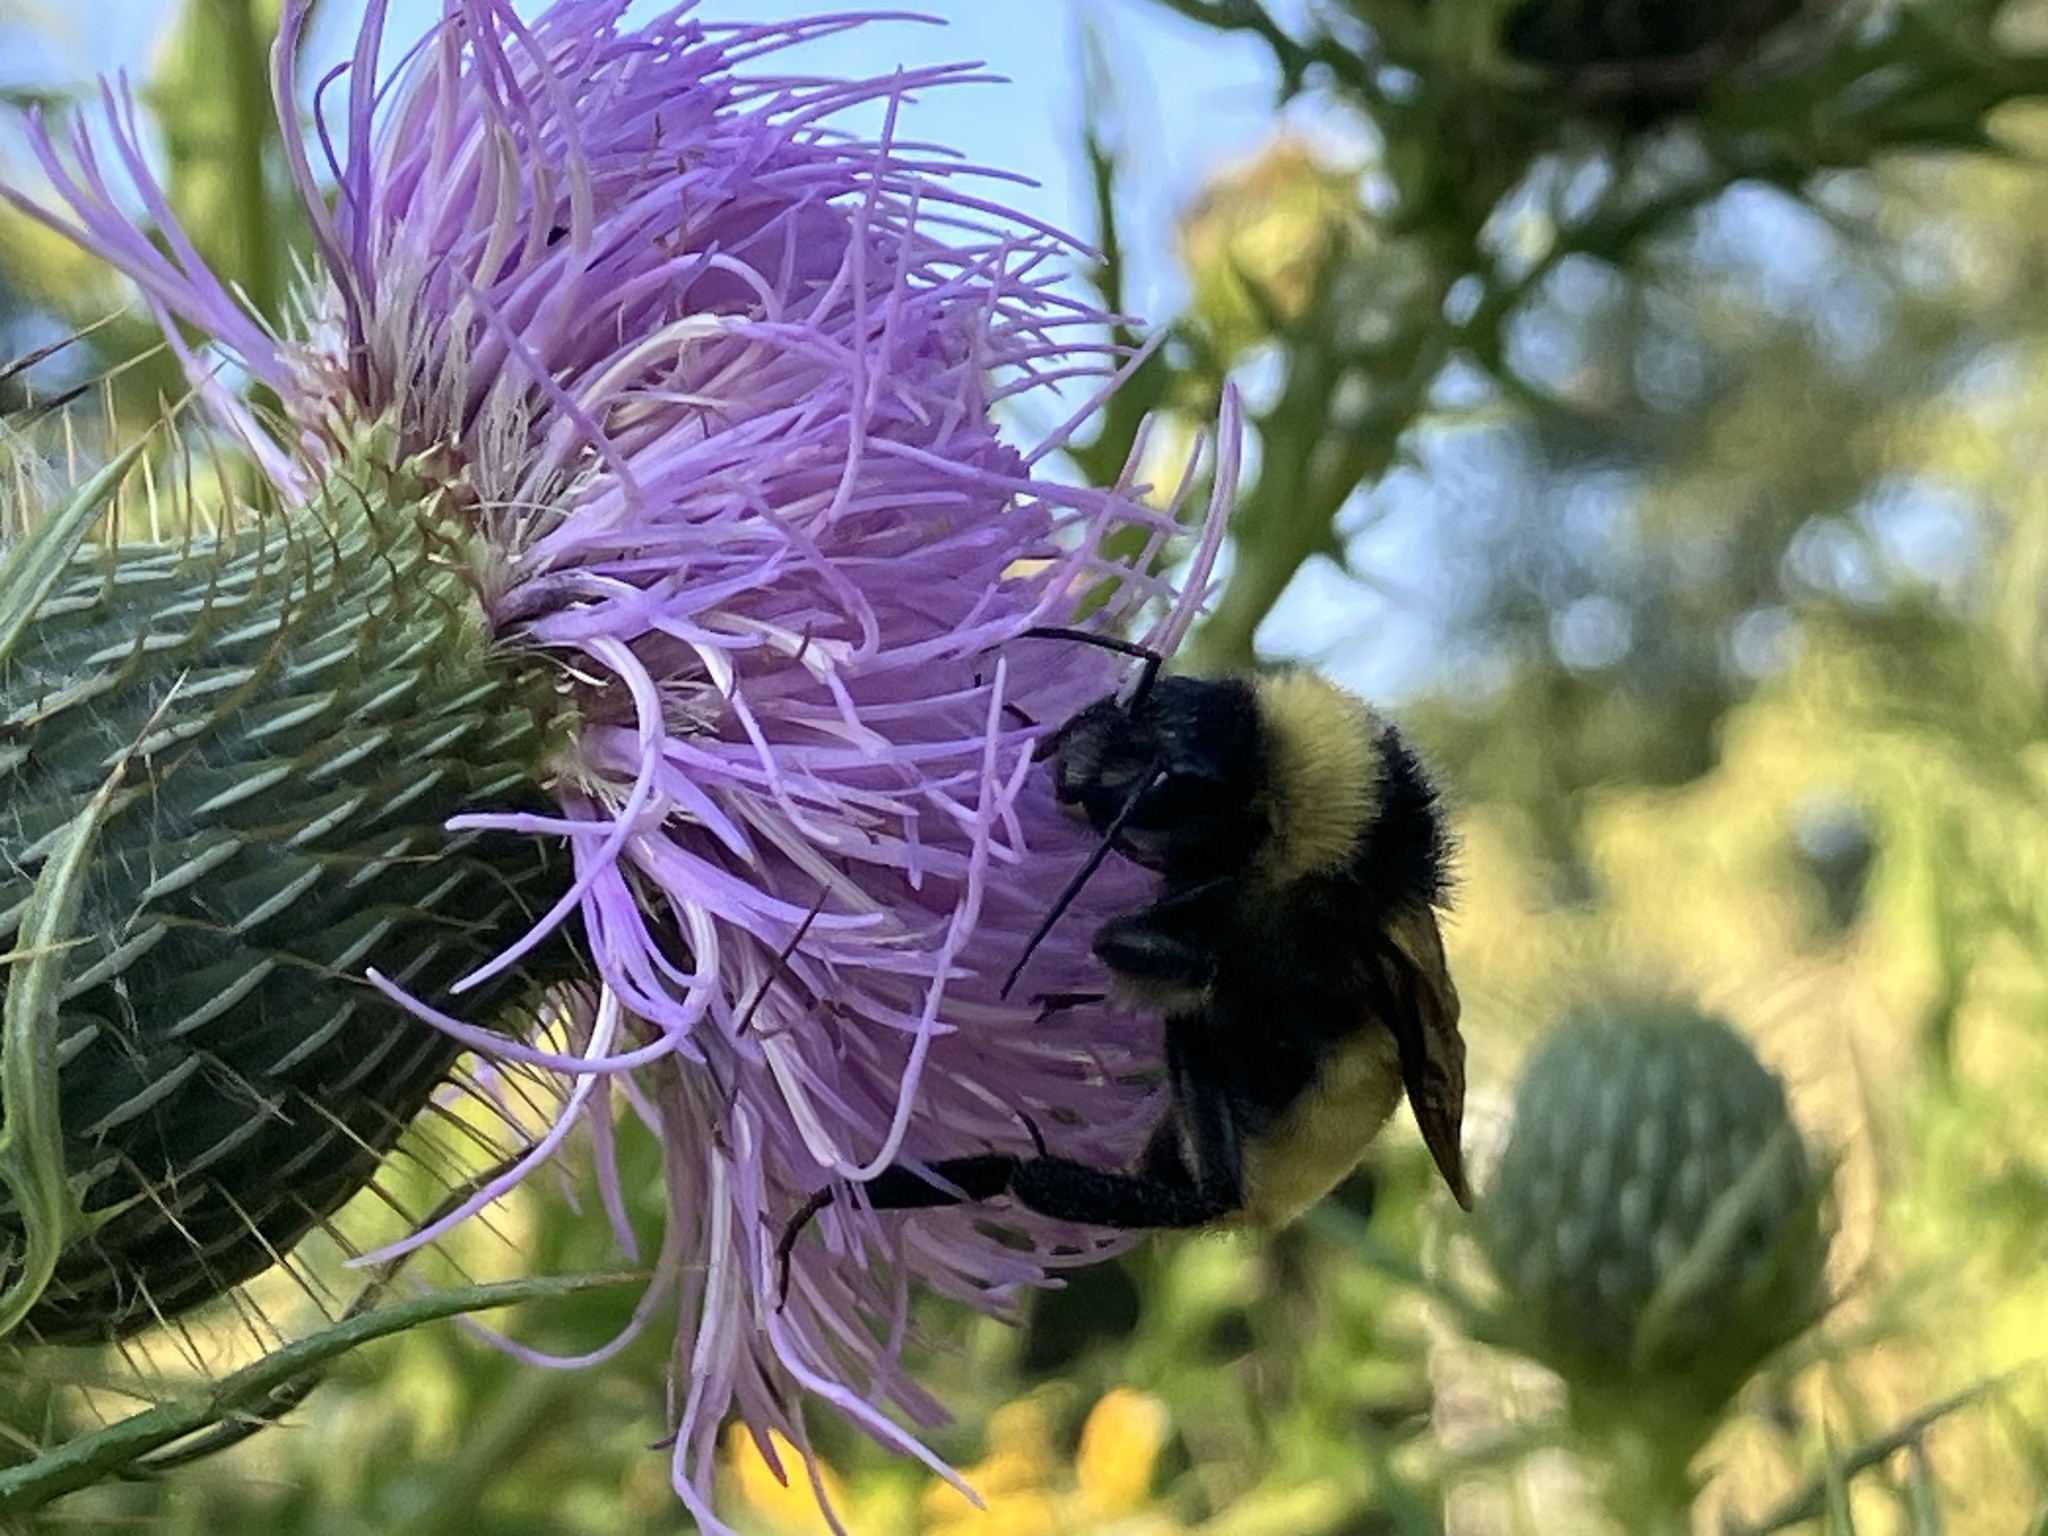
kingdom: Animalia
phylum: Arthropoda
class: Insecta
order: Hymenoptera
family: Apidae
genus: Bombus
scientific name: Bombus pensylvanicus
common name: Bumble bee
